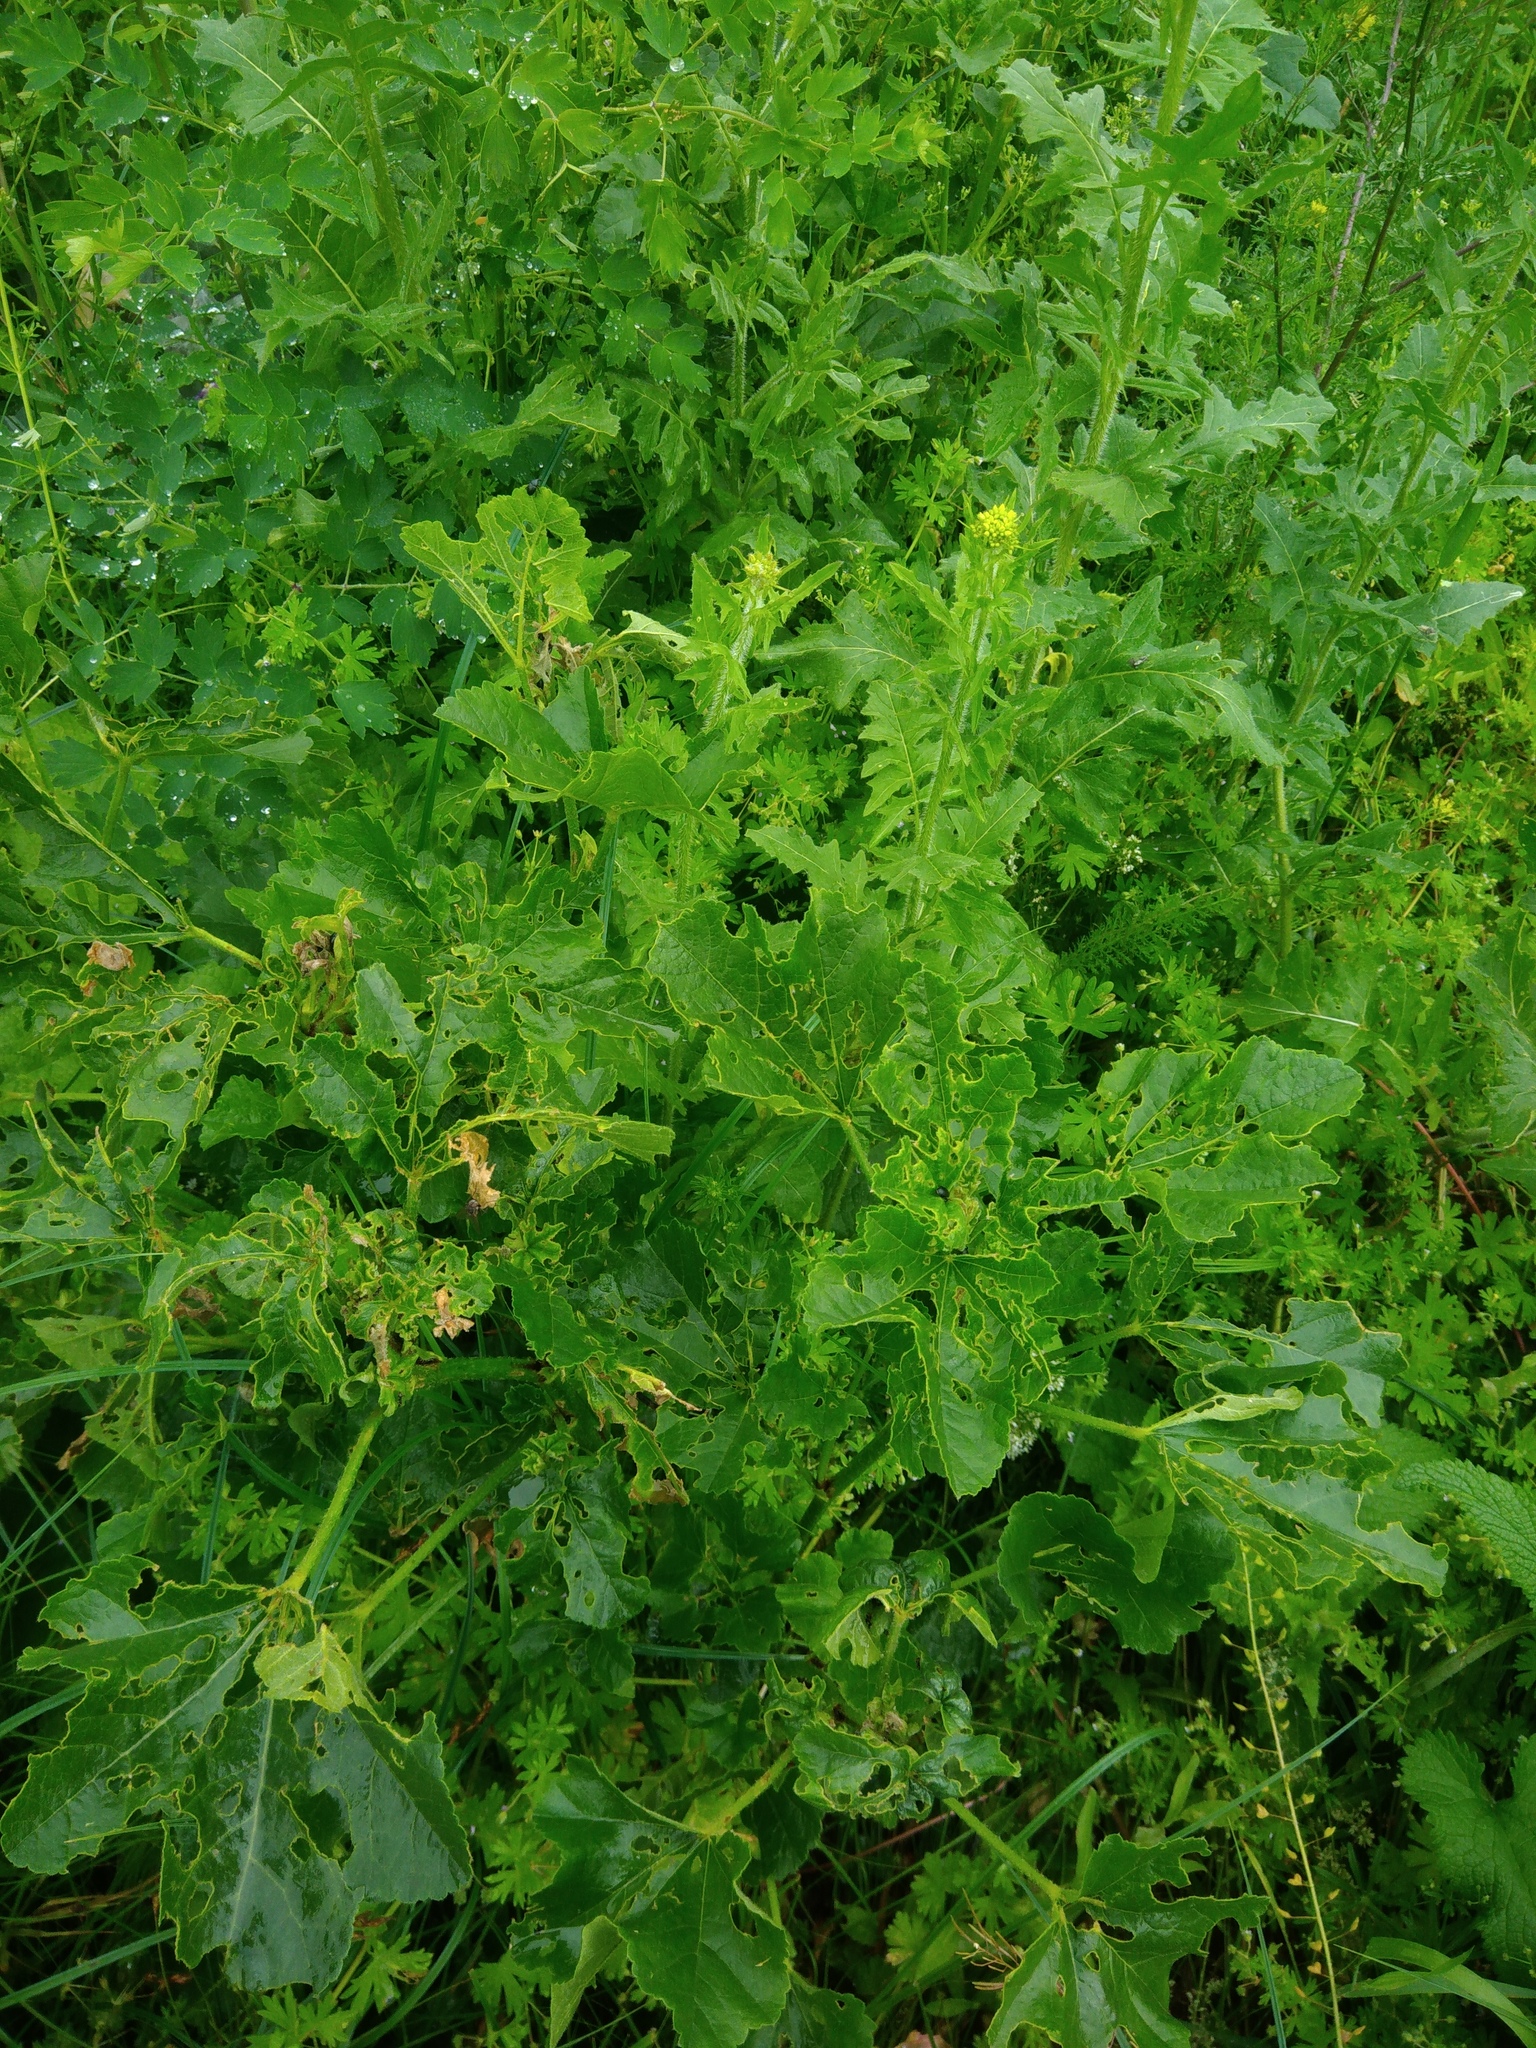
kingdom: Plantae
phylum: Tracheophyta
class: Magnoliopsida
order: Brassicales
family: Brassicaceae
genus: Sisymbrium
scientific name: Sisymbrium loeselii
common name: False london-rocket
